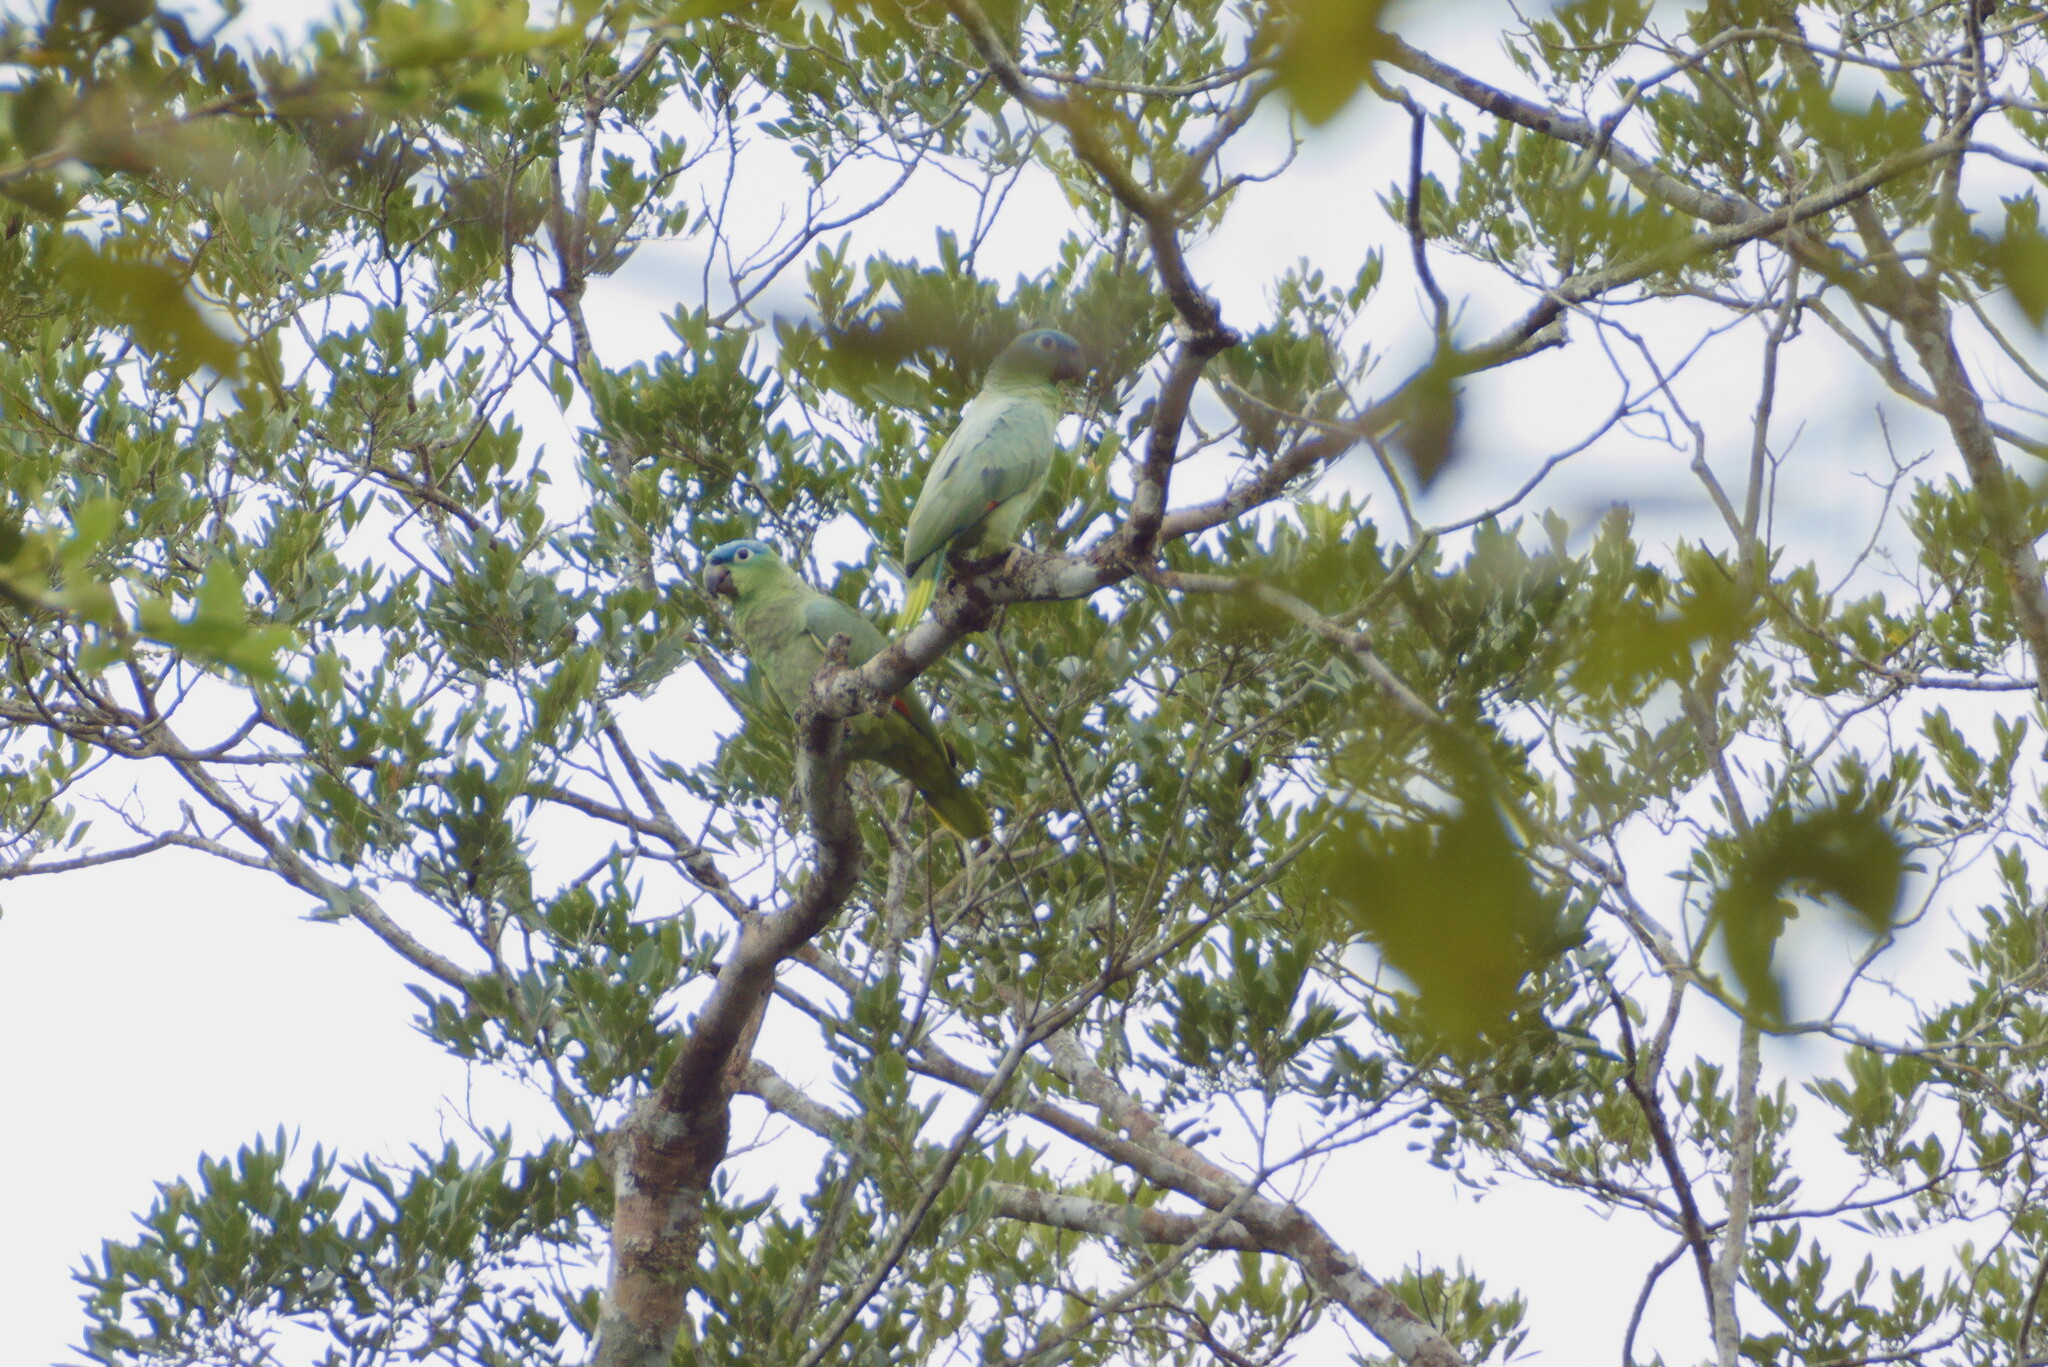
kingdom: Animalia
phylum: Chordata
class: Aves
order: Psittaciformes
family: Psittacidae
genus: Amazona
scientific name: Amazona farinosa
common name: Mealy parrot
